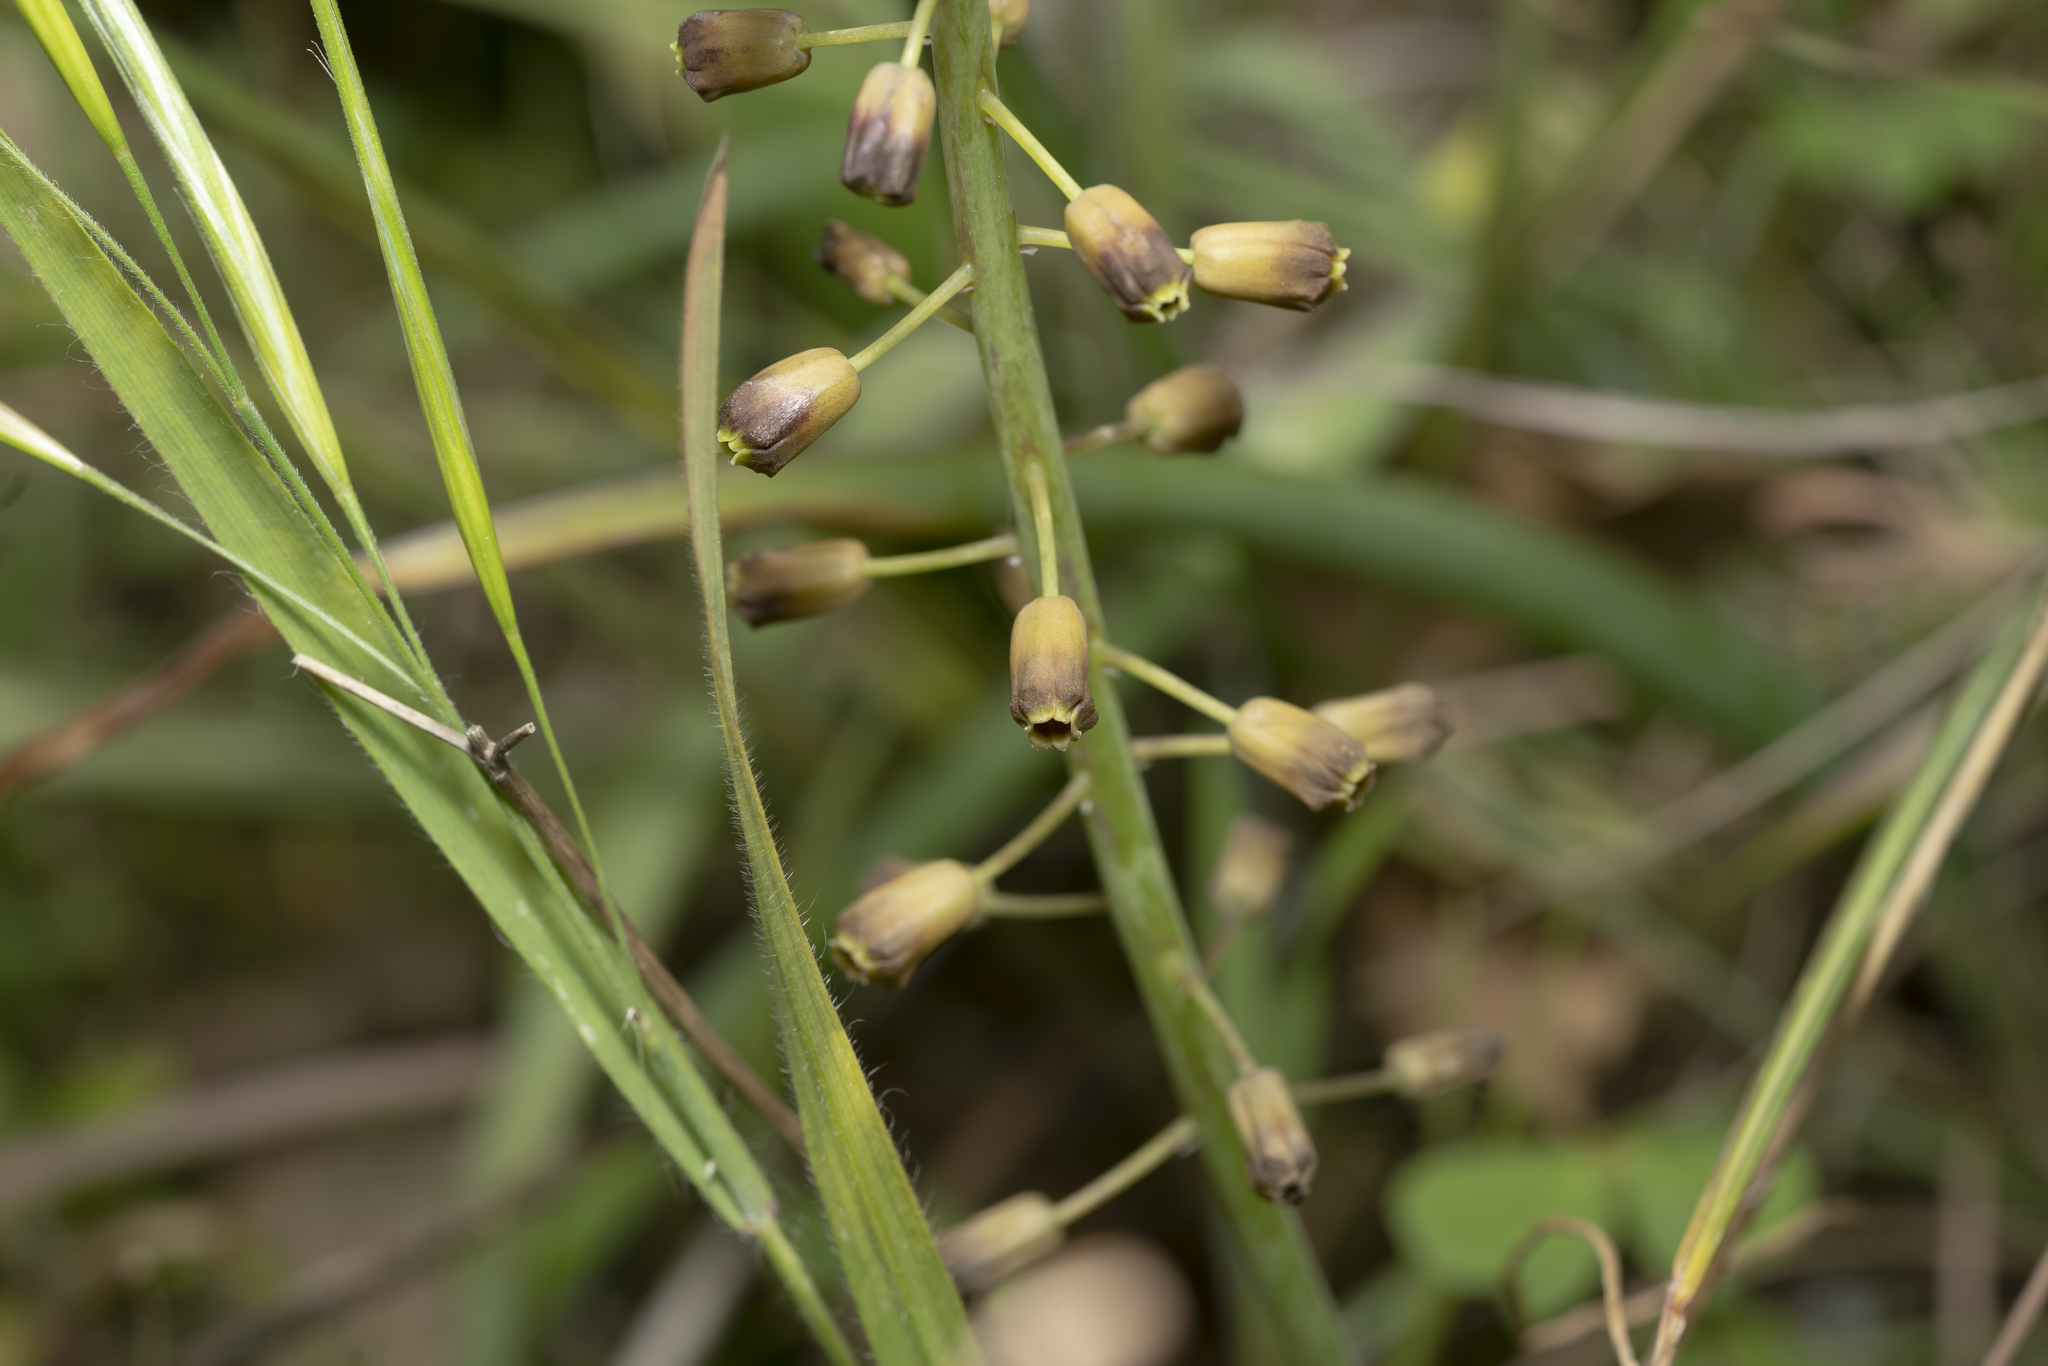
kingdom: Plantae
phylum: Tracheophyta
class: Liliopsida
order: Asparagales
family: Asparagaceae
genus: Muscari
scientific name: Muscari comosum
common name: Tassel hyacinth
